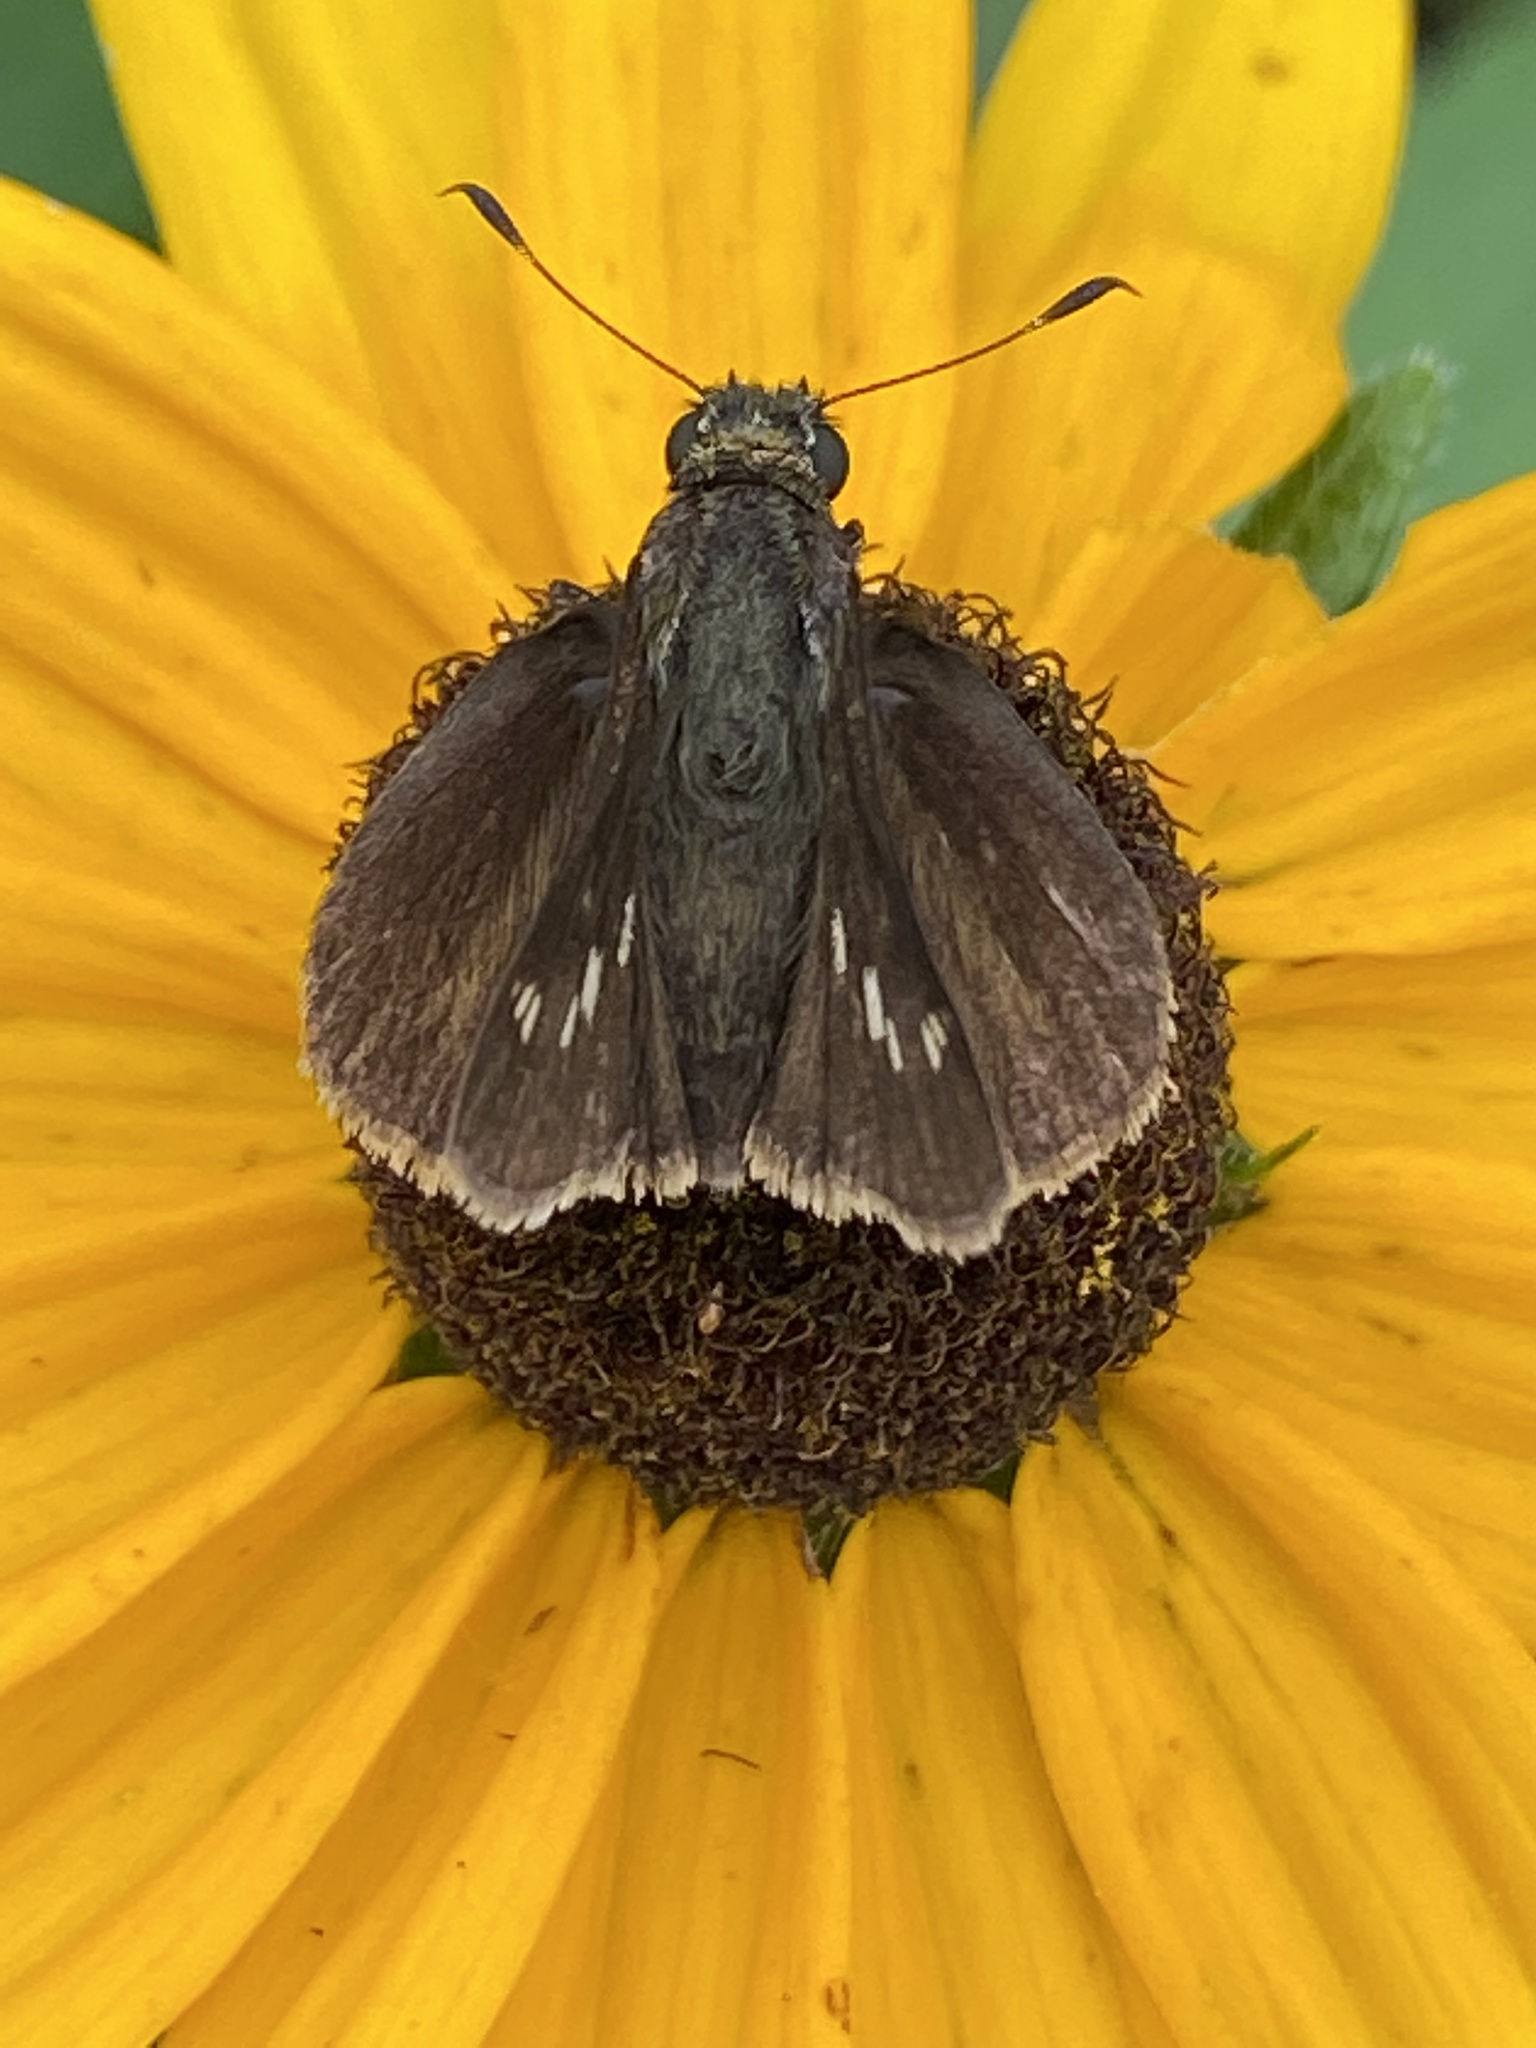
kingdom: Animalia
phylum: Arthropoda
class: Insecta
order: Lepidoptera
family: Hesperiidae
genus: Vernia
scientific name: Vernia verna
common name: Little glassywing
